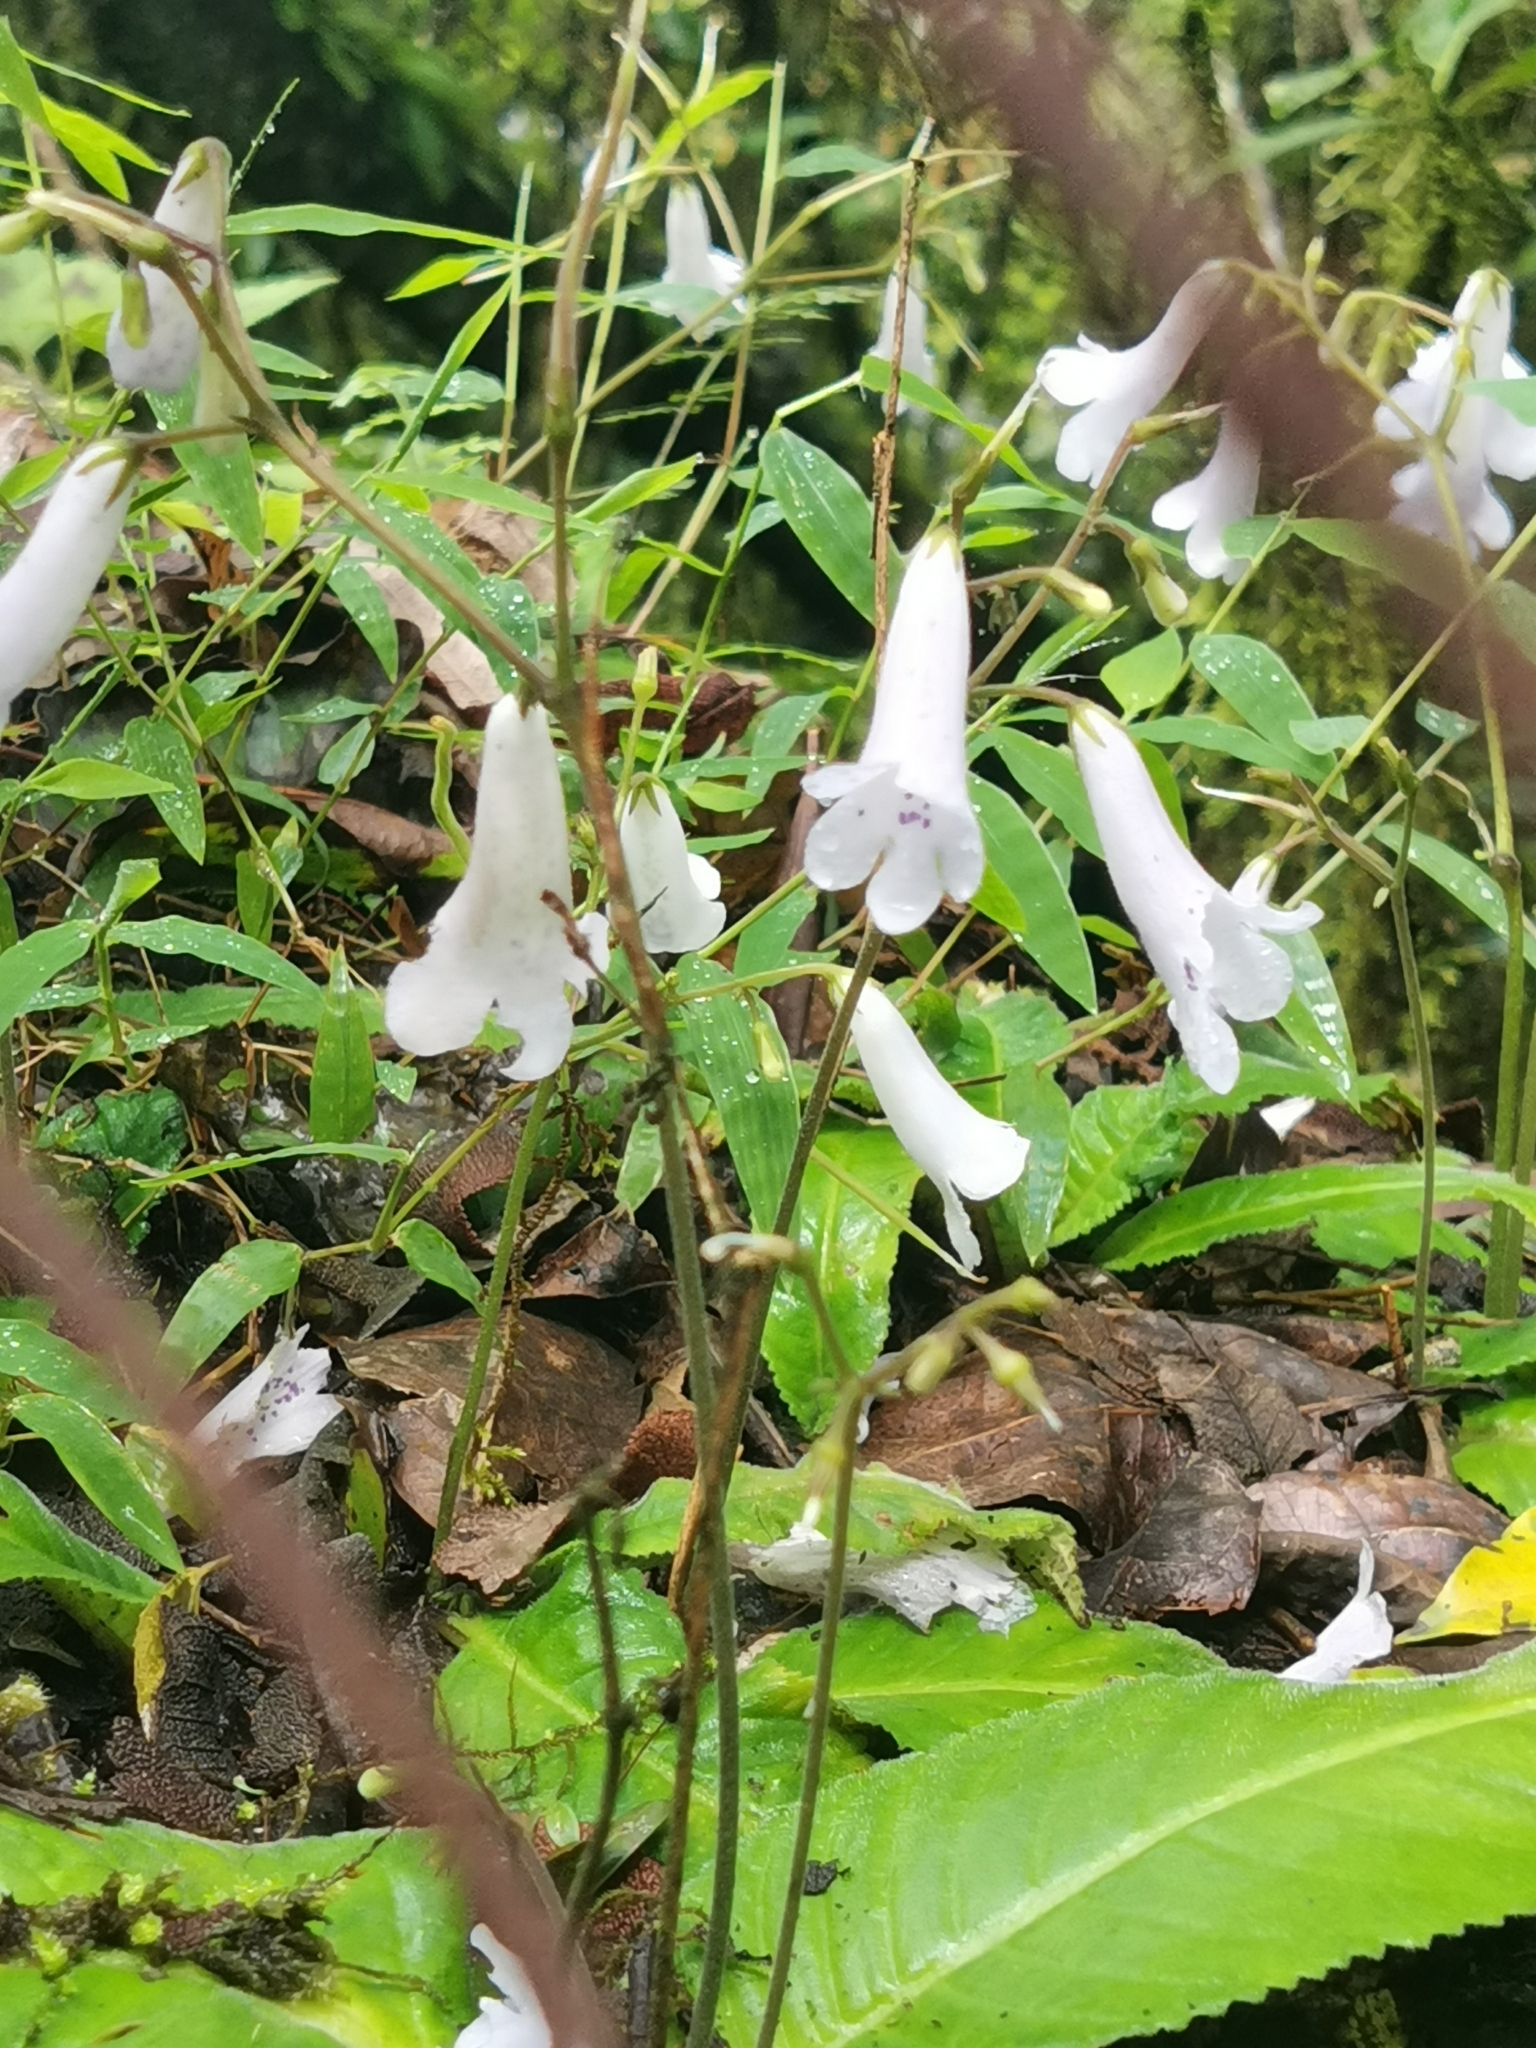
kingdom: Plantae
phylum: Tracheophyta
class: Magnoliopsida
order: Lamiales
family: Gesneriaceae
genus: Streptocarpus
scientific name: Streptocarpus wilmsii
